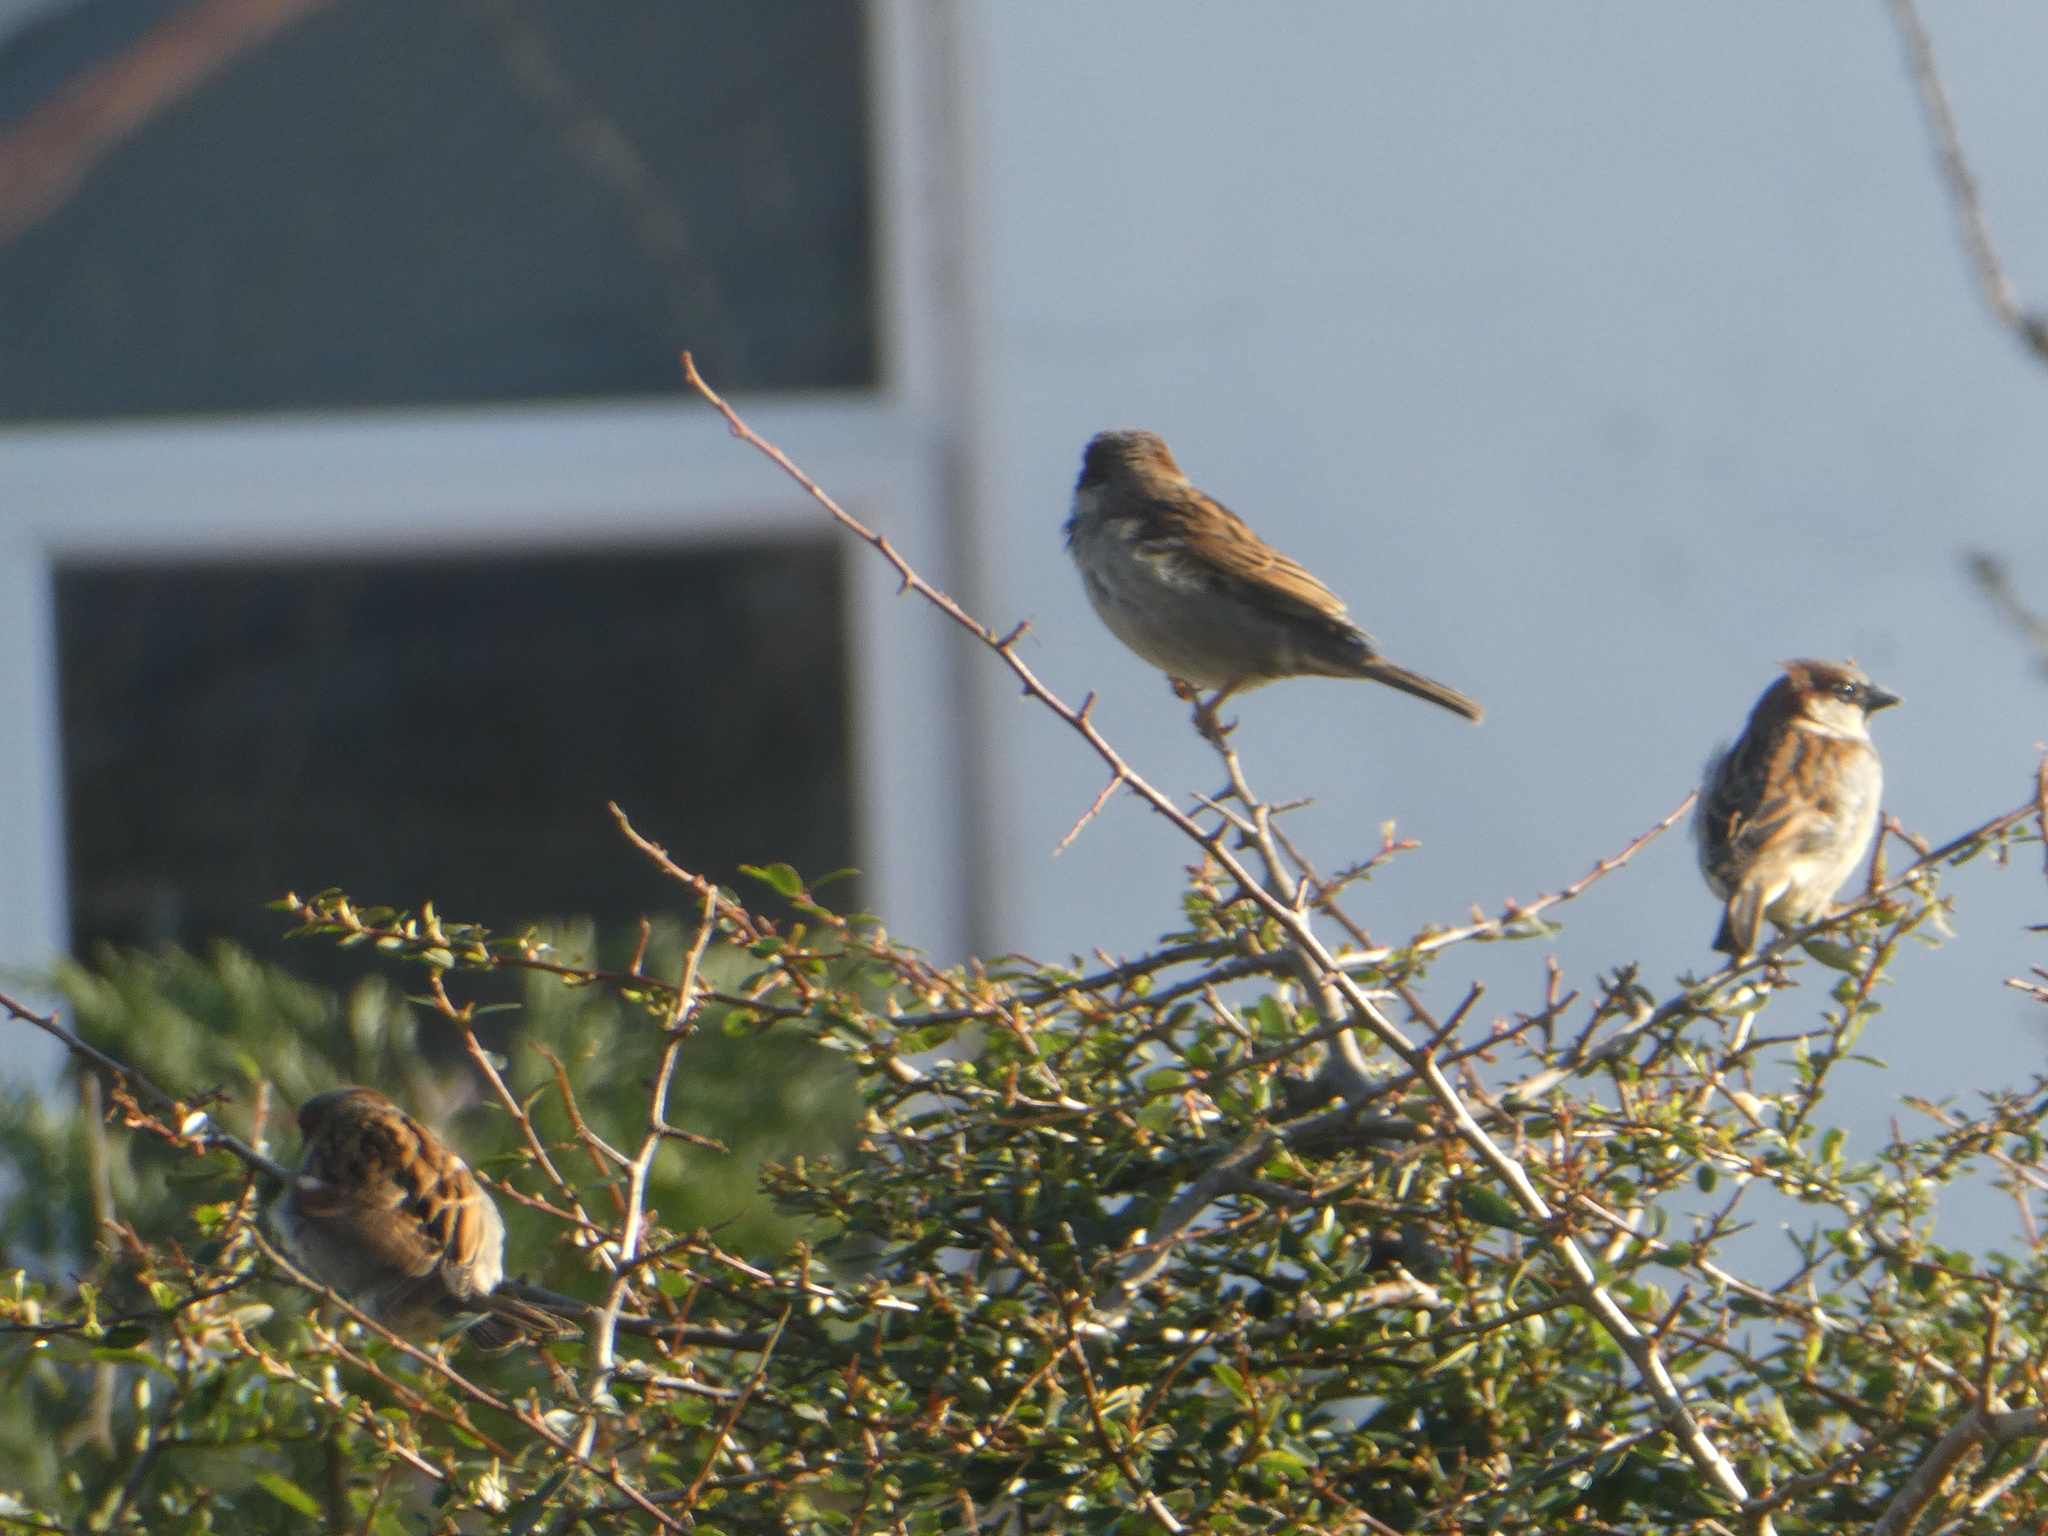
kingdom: Animalia
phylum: Chordata
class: Aves
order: Passeriformes
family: Passeridae
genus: Passer
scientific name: Passer domesticus
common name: House sparrow
